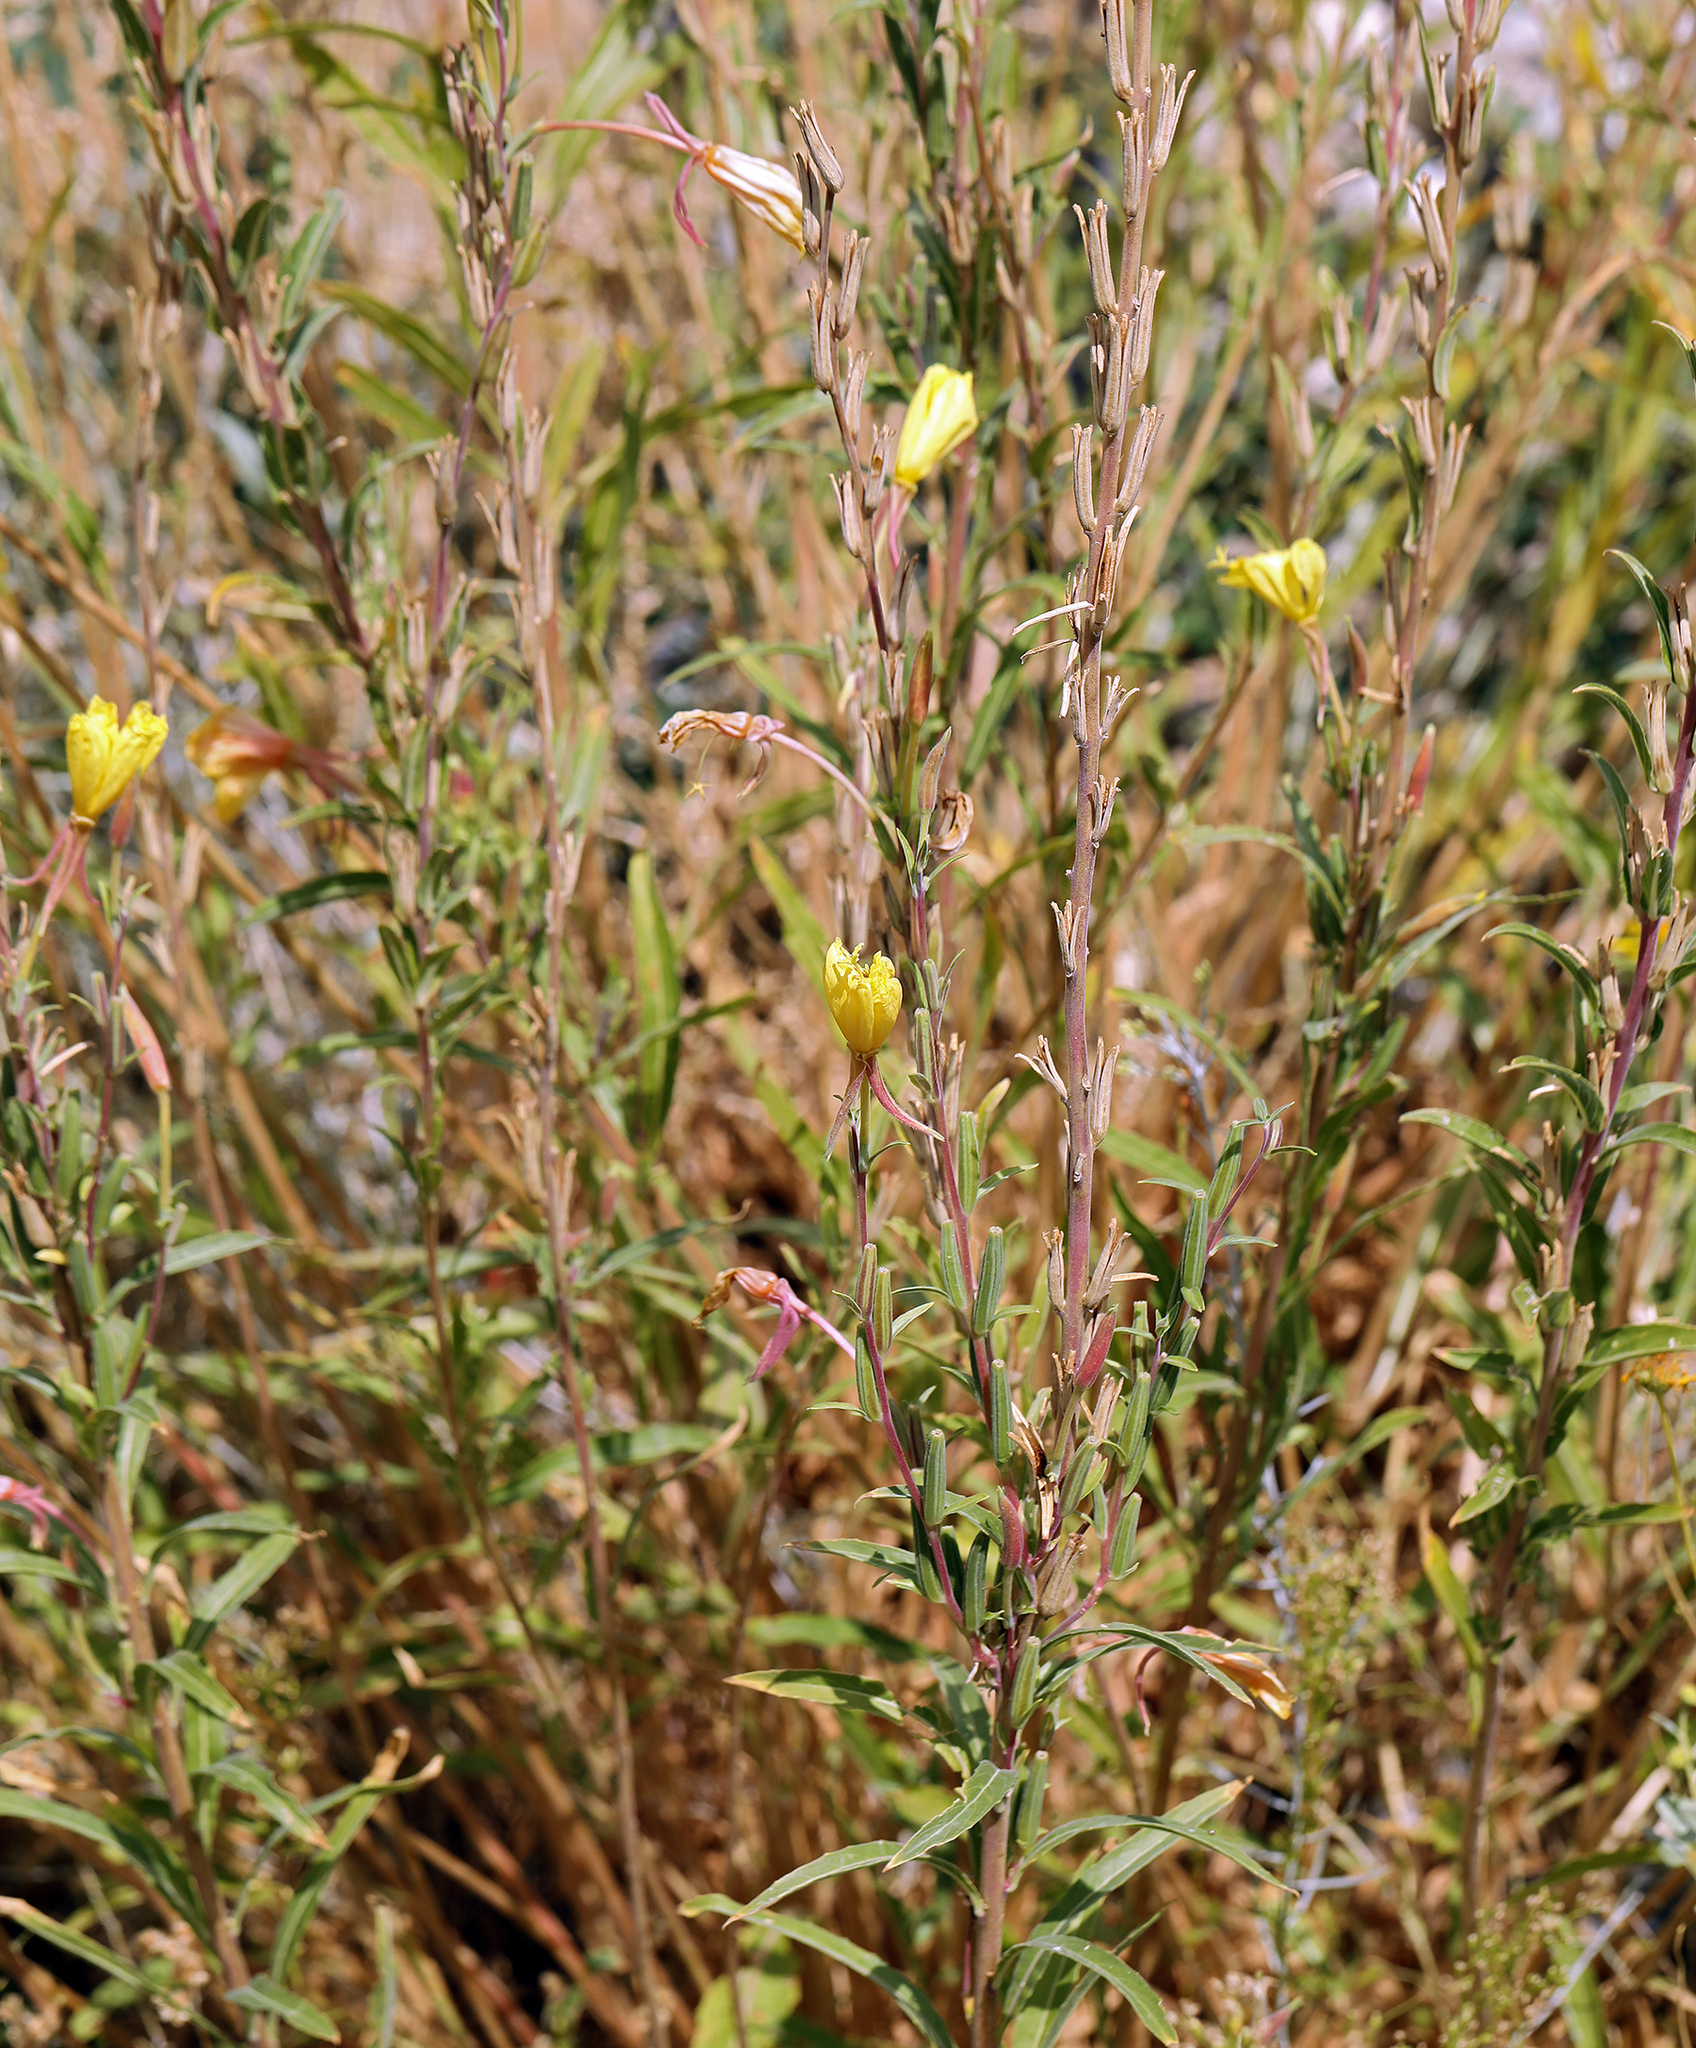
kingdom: Plantae
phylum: Tracheophyta
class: Magnoliopsida
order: Myrtales
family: Onagraceae
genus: Oenothera
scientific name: Oenothera elata
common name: Hooker's evening-primrose
